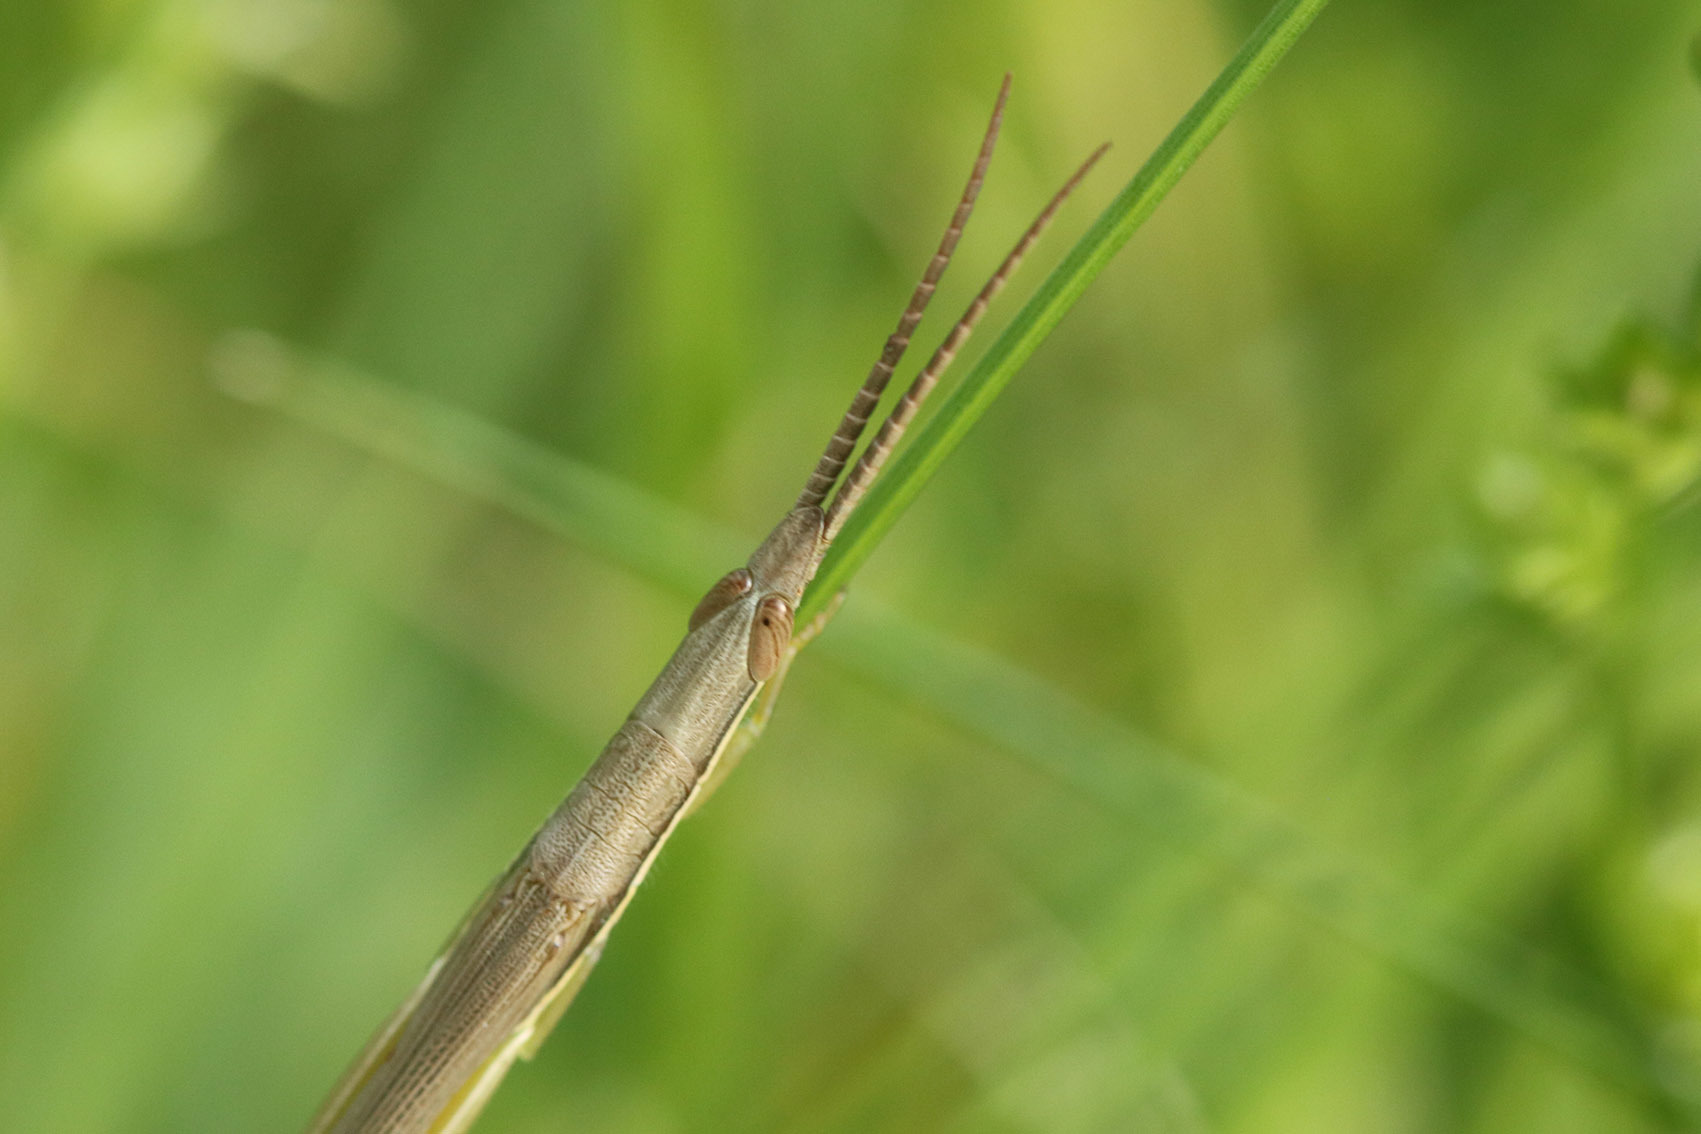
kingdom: Animalia
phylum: Arthropoda
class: Insecta
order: Orthoptera
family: Acrididae
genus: Cylindrotettix
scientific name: Cylindrotettix dorsalis
